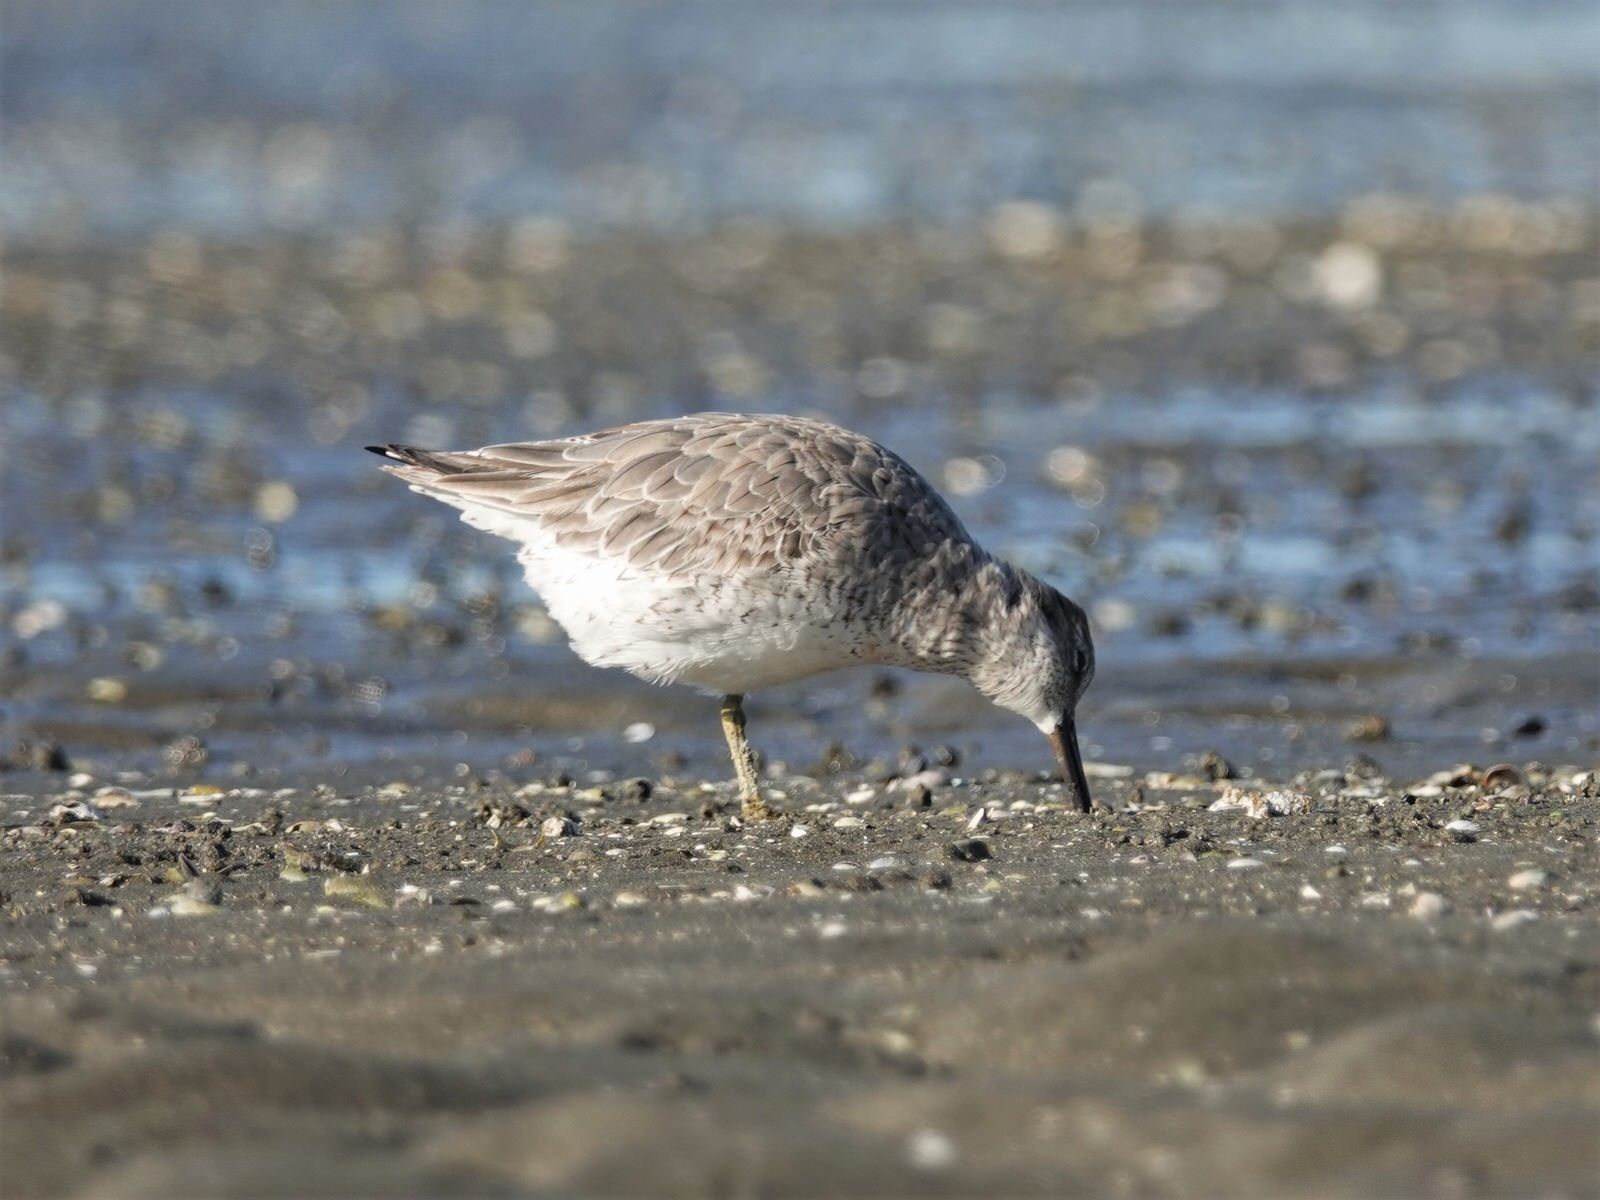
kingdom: Animalia
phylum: Chordata
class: Aves
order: Charadriiformes
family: Scolopacidae
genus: Calidris
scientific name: Calidris canutus
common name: Red knot
